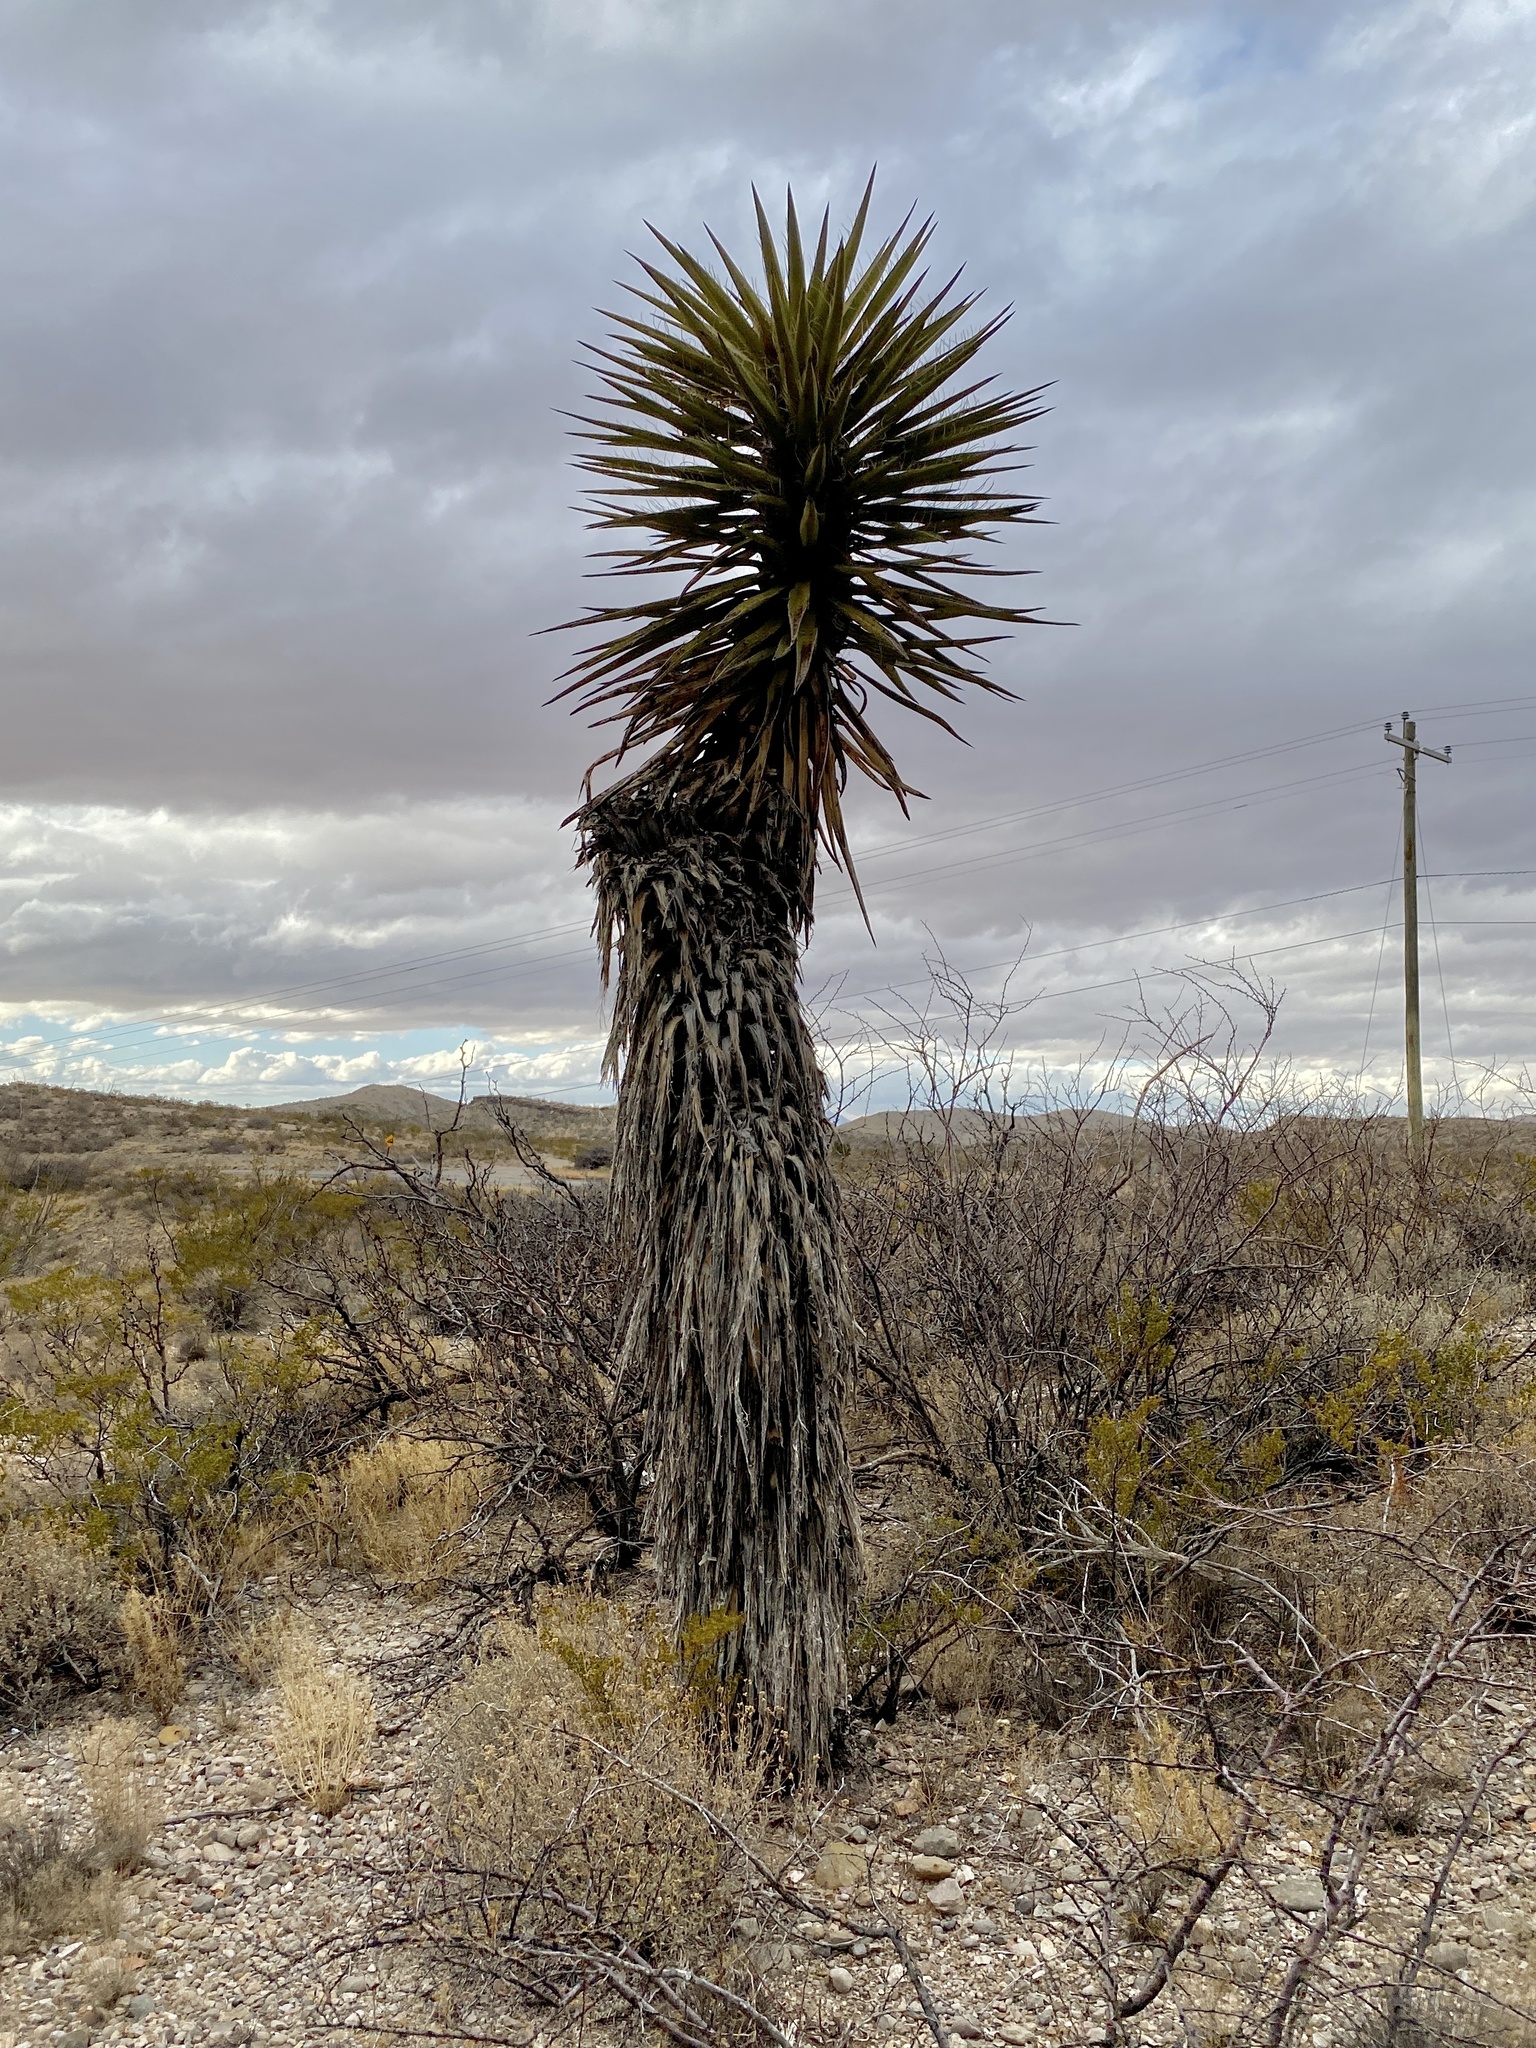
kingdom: Plantae
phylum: Tracheophyta
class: Liliopsida
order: Asparagales
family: Asparagaceae
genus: Yucca
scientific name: Yucca treculiana
